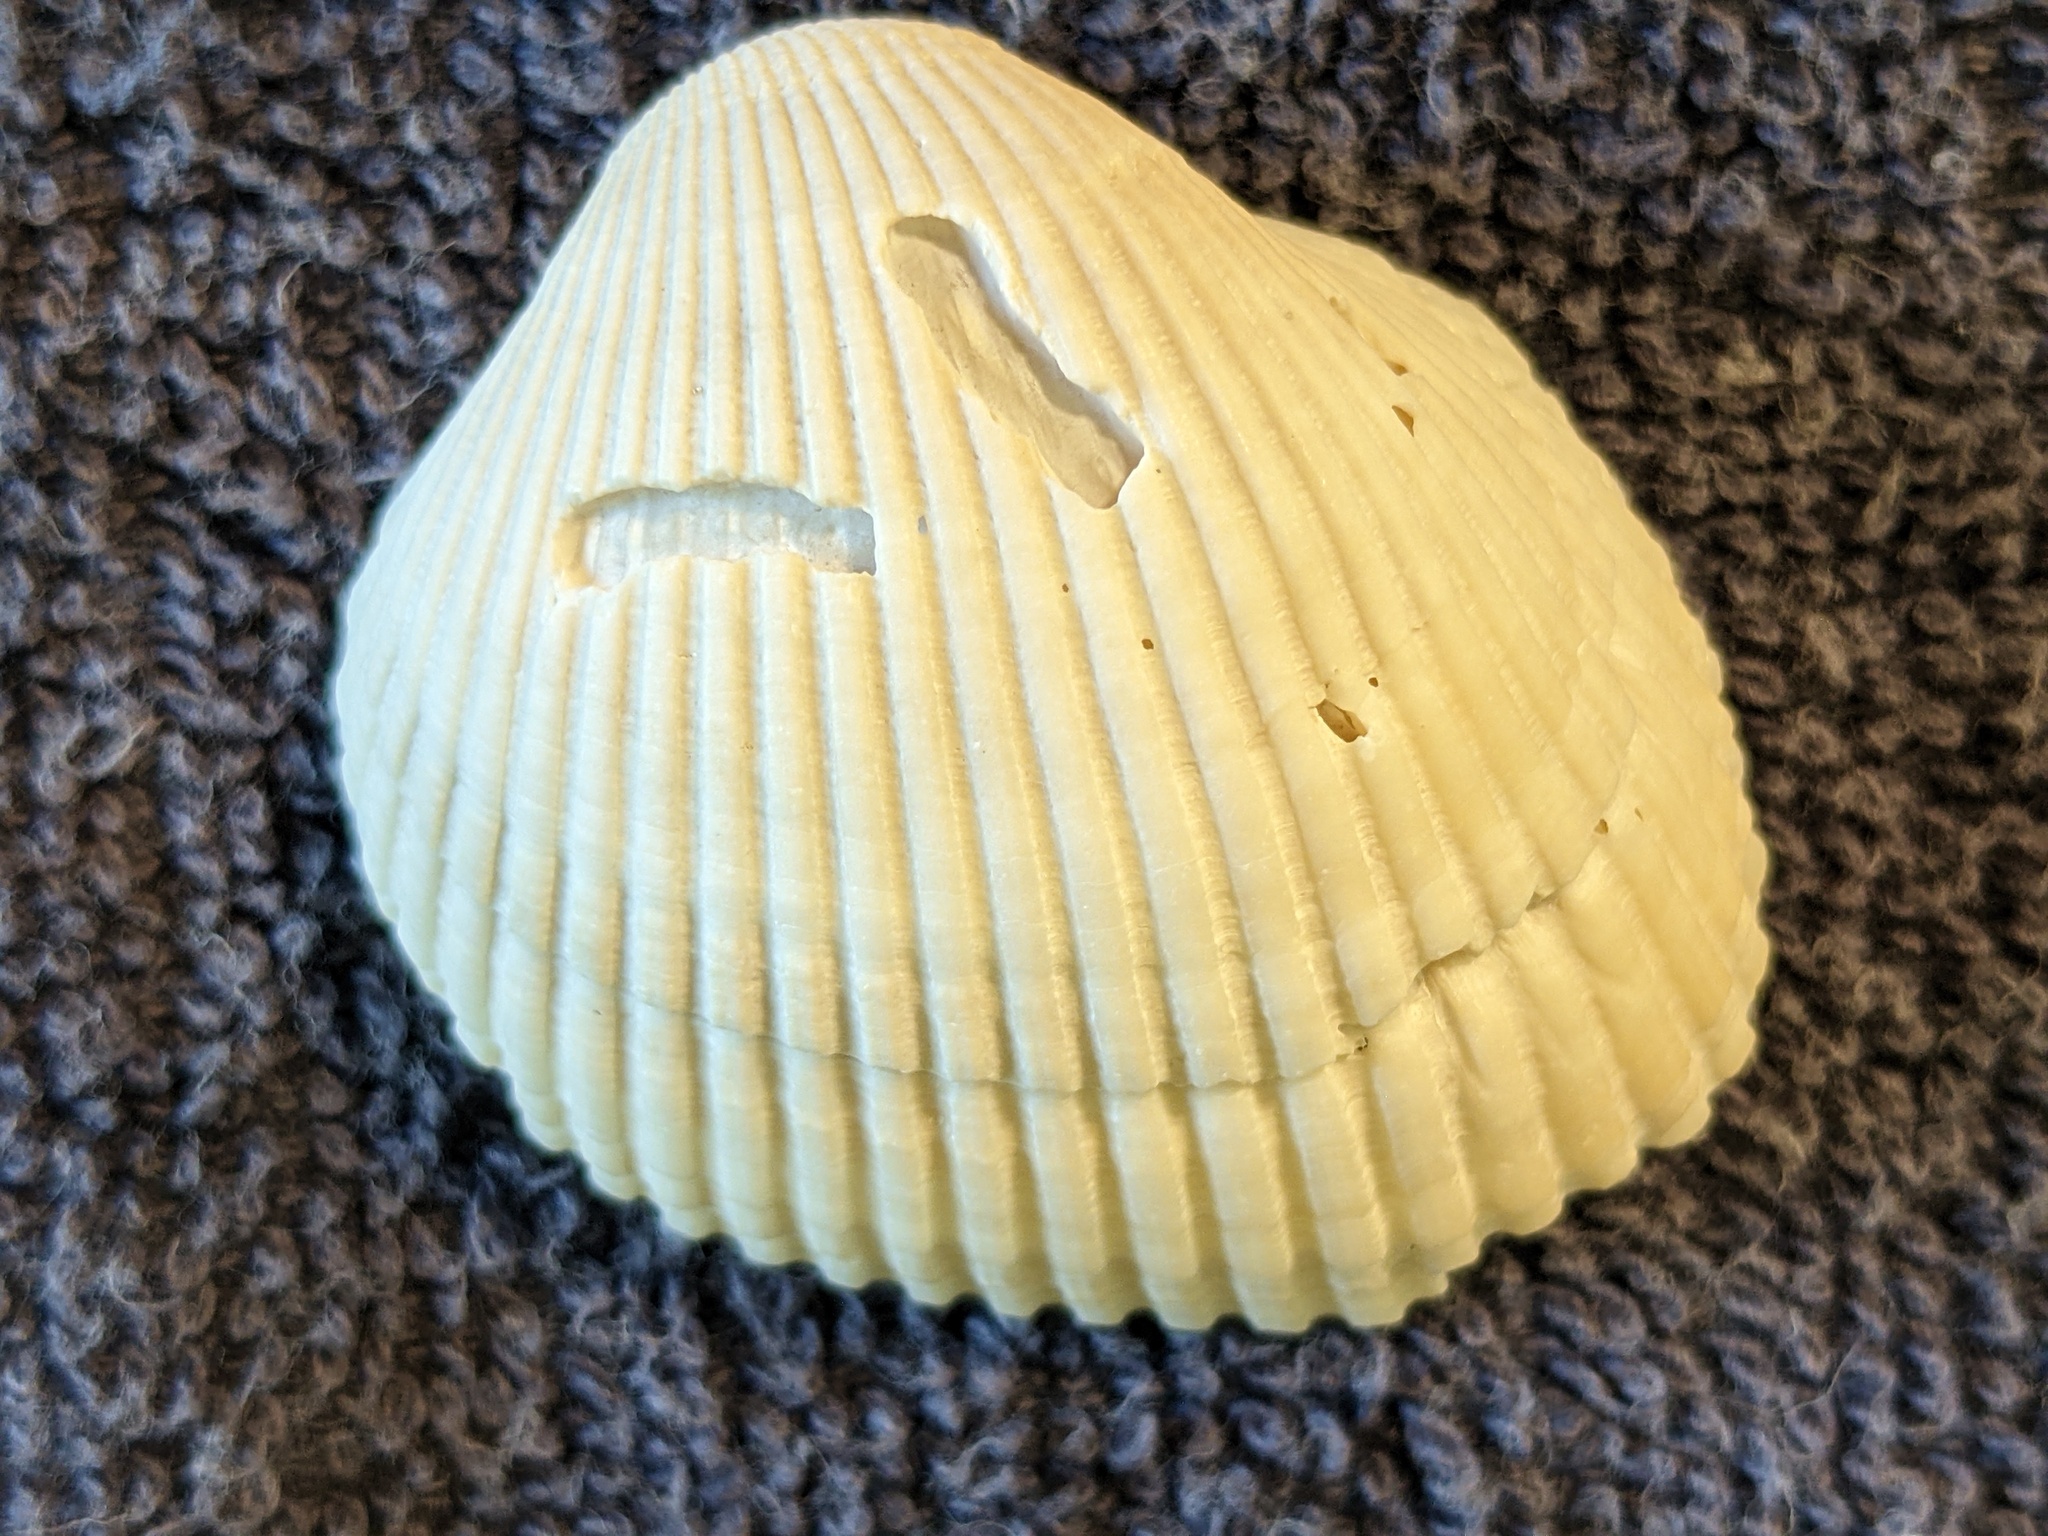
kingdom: Animalia
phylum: Mollusca
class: Bivalvia
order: Arcida
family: Arcidae
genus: Lunarca
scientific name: Lunarca ovalis
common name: Blood ark
